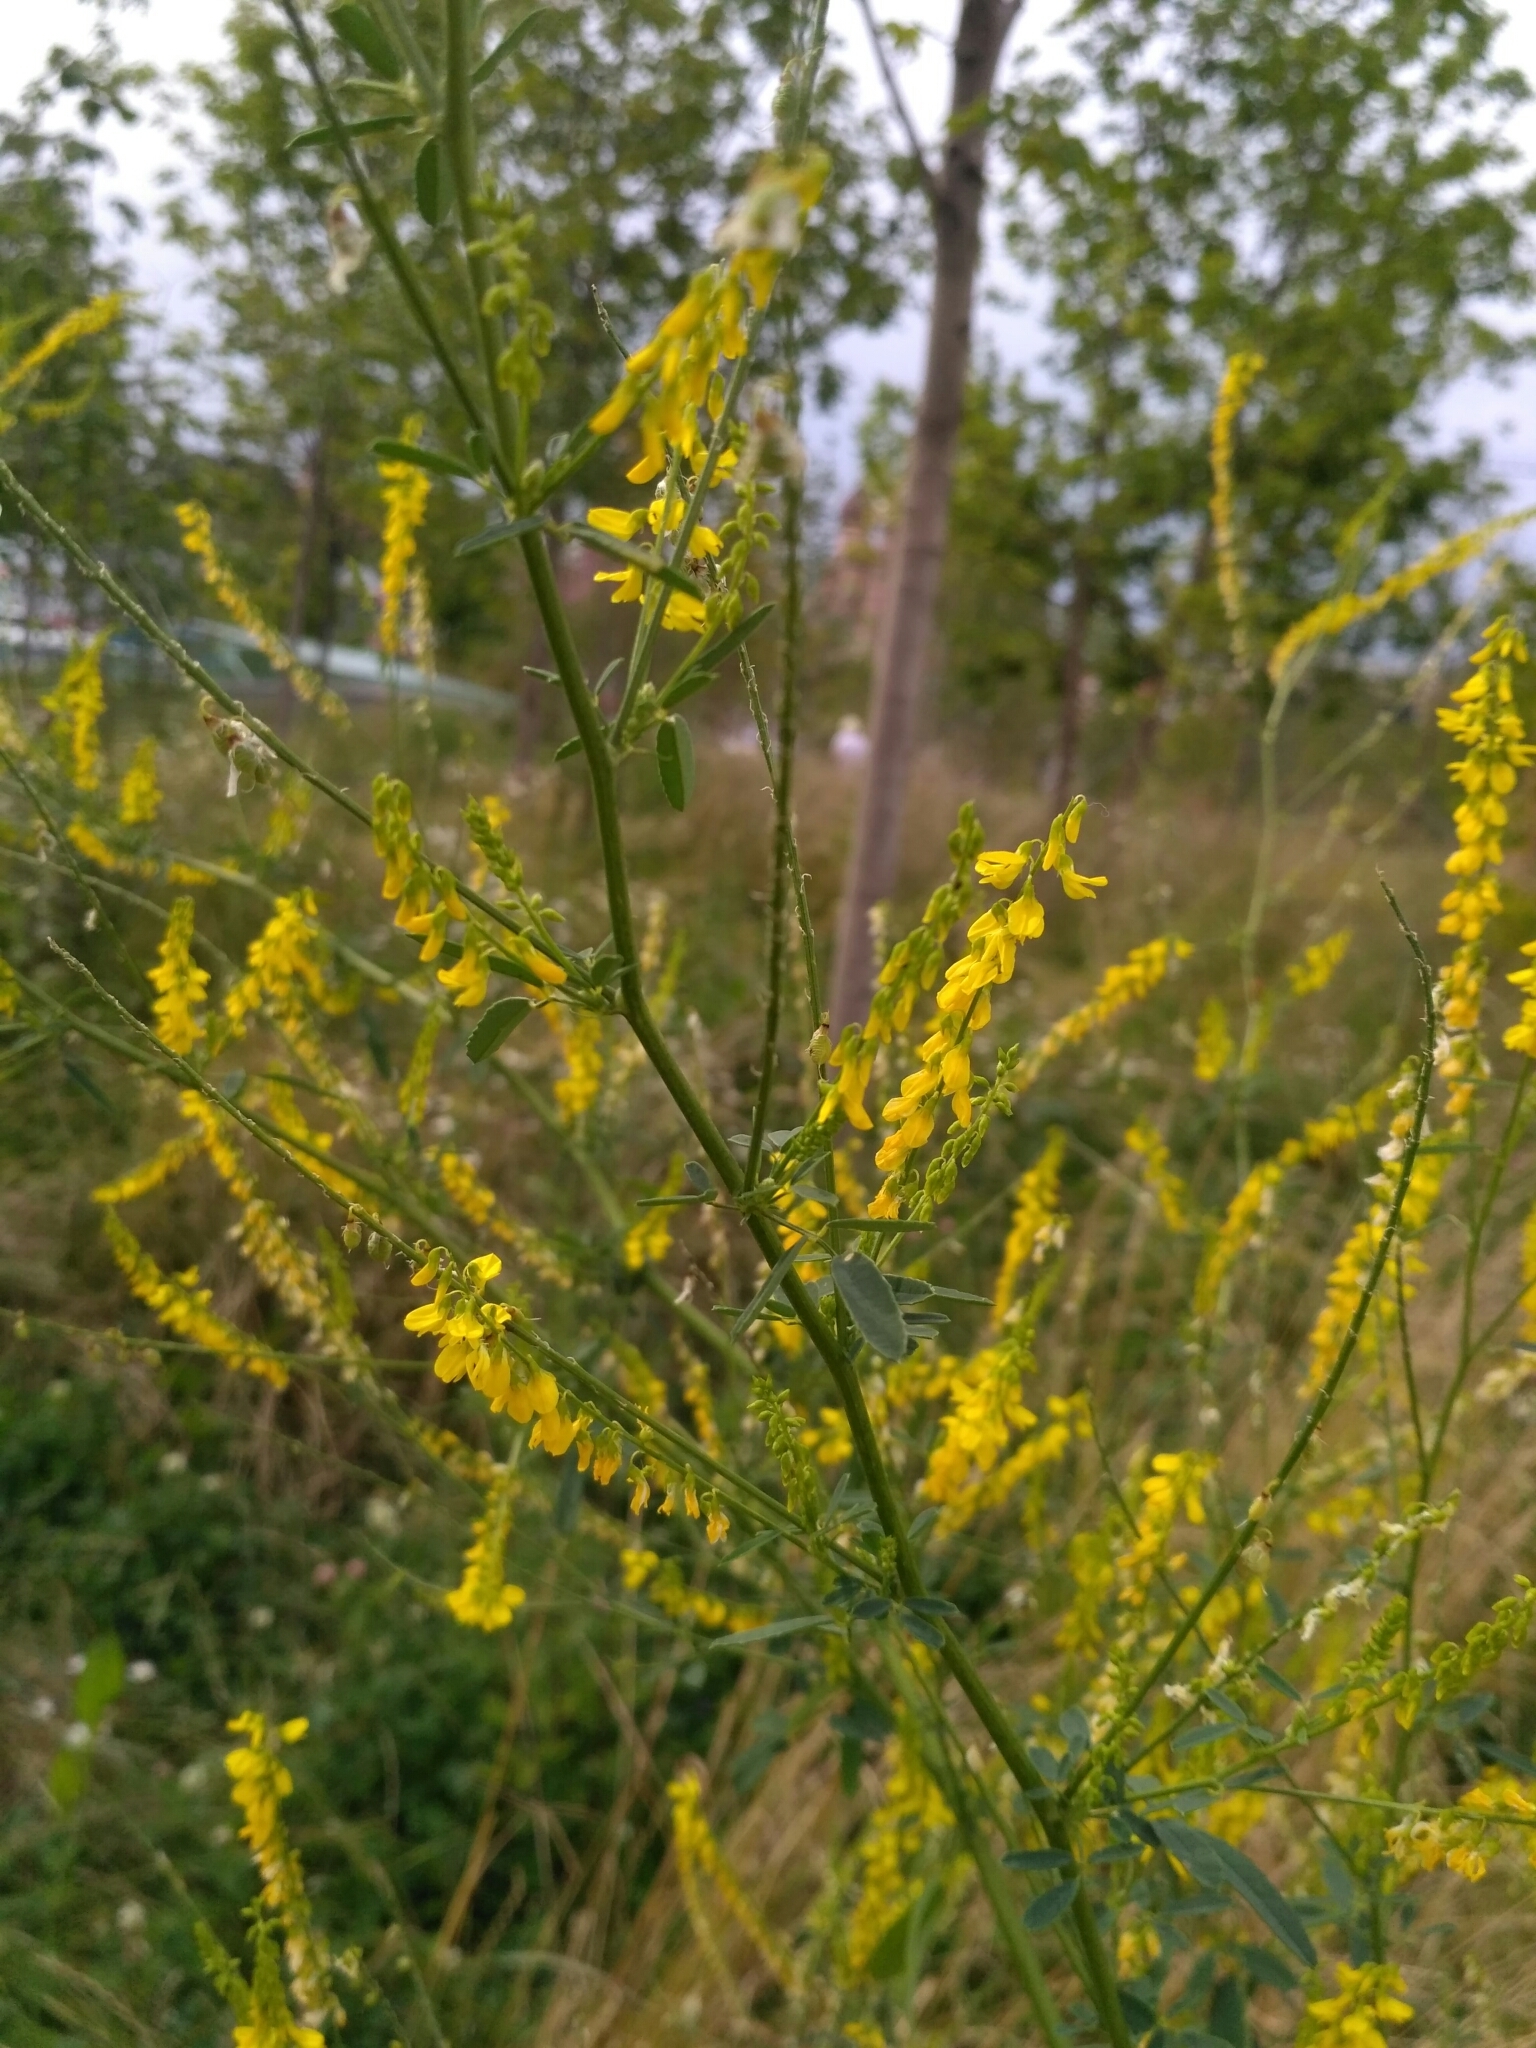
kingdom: Plantae
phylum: Tracheophyta
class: Magnoliopsida
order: Fabales
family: Fabaceae
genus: Melilotus
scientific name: Melilotus officinalis
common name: Sweetclover
